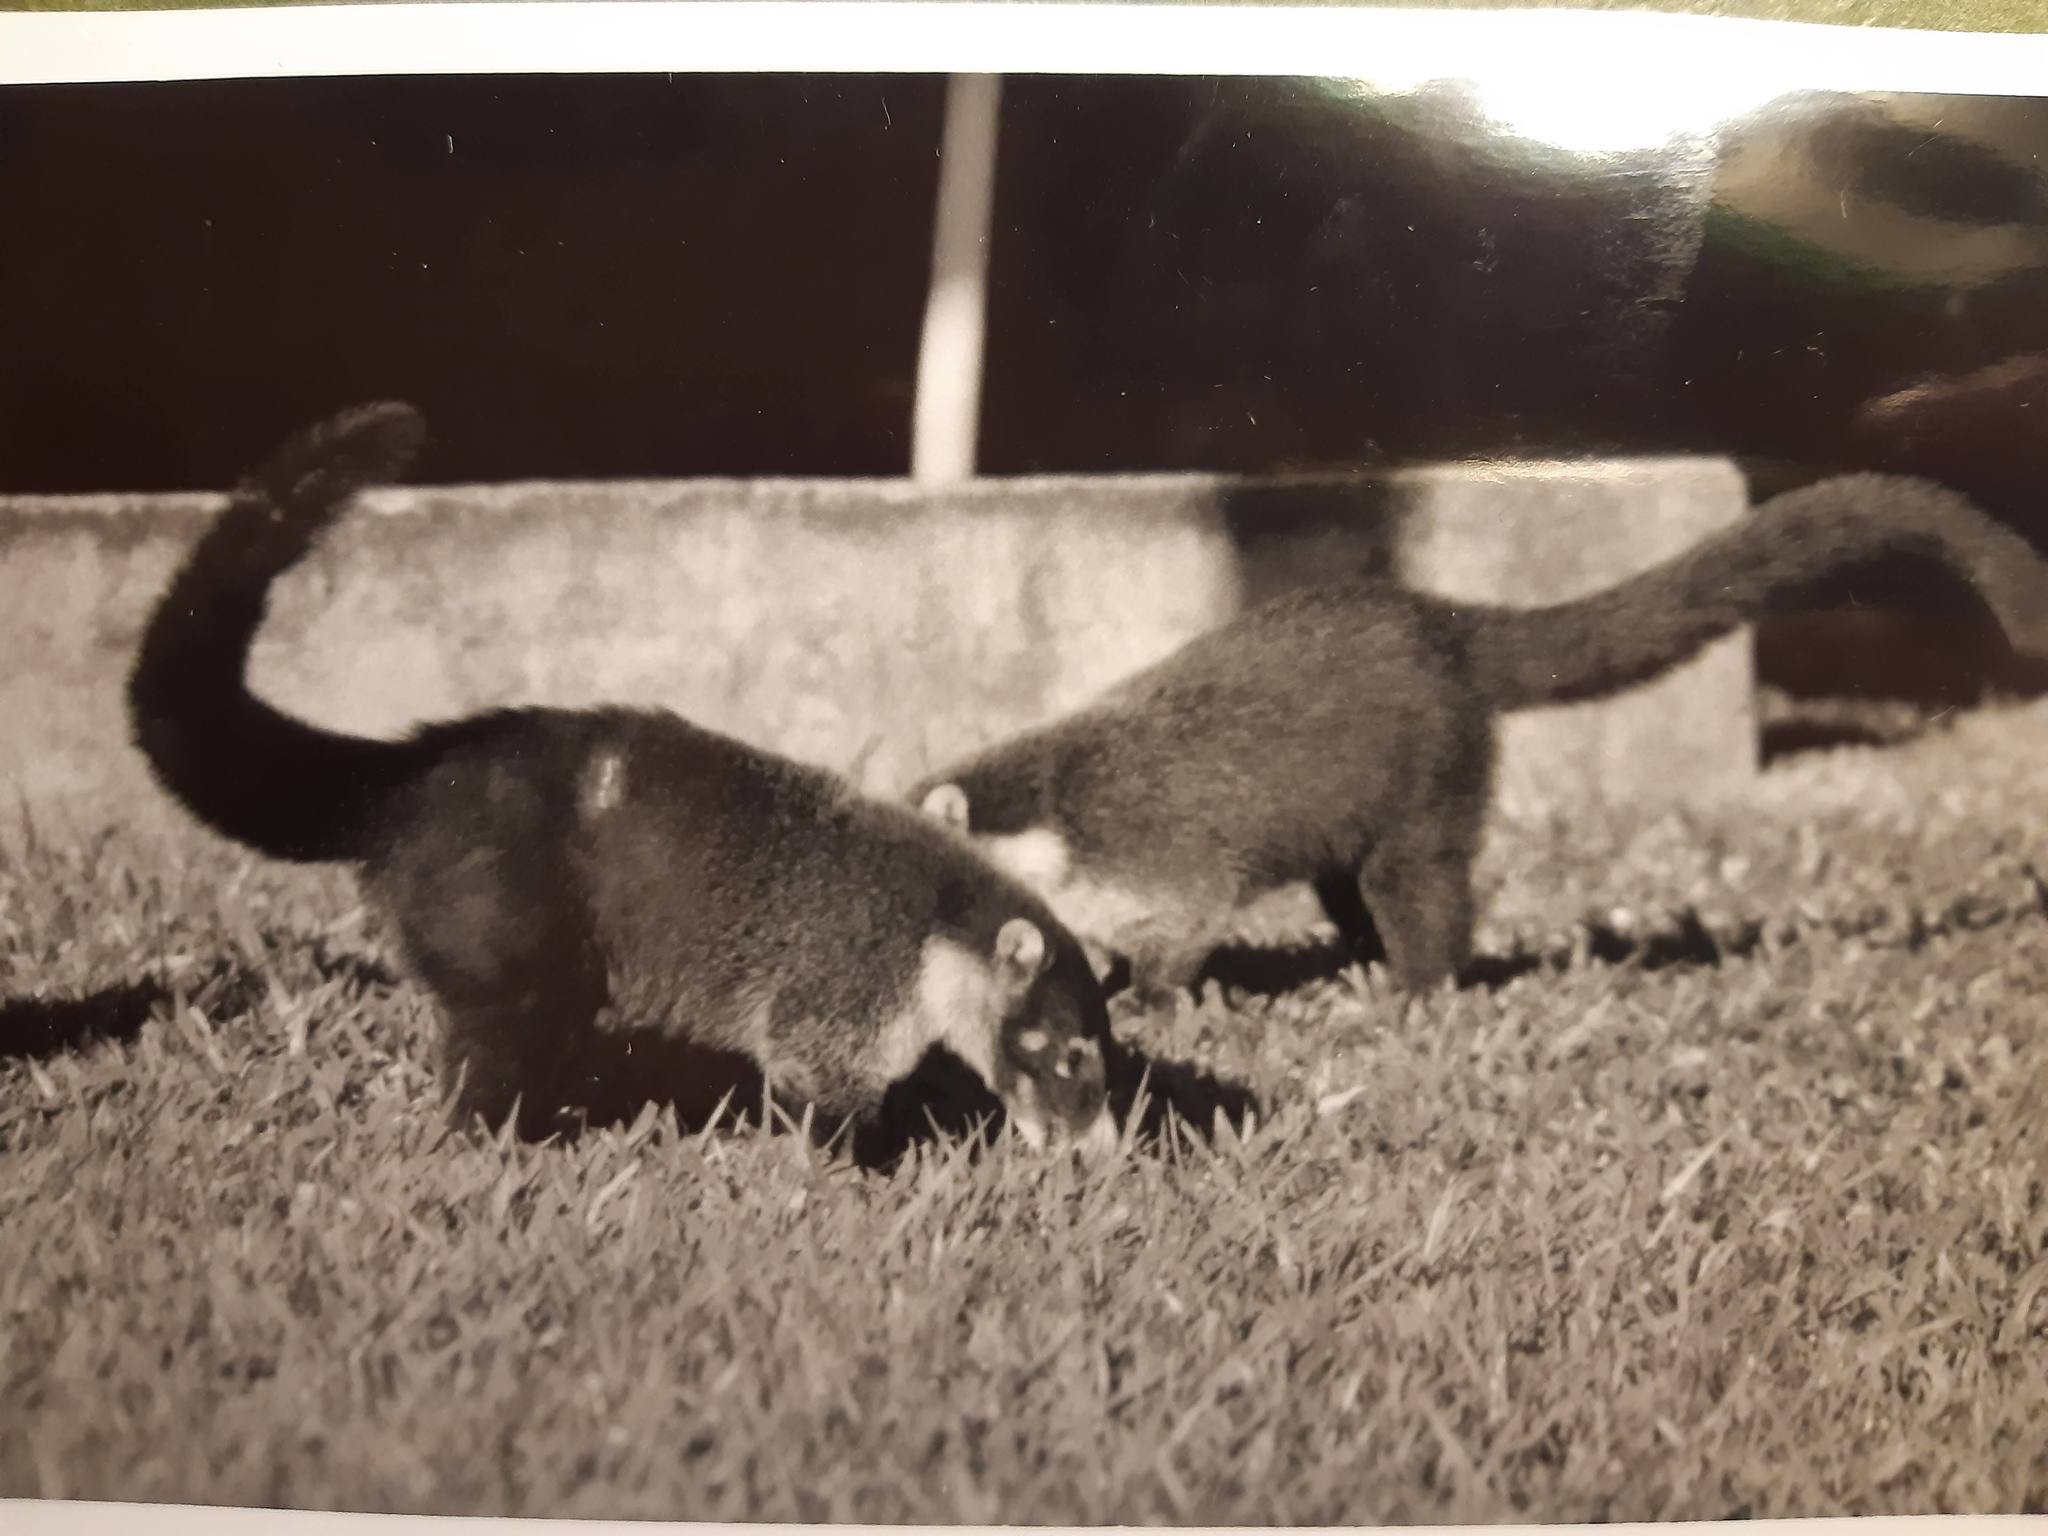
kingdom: Animalia
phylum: Chordata
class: Mammalia
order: Carnivora
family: Procyonidae
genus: Nasua
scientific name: Nasua narica
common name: White-nosed coati
